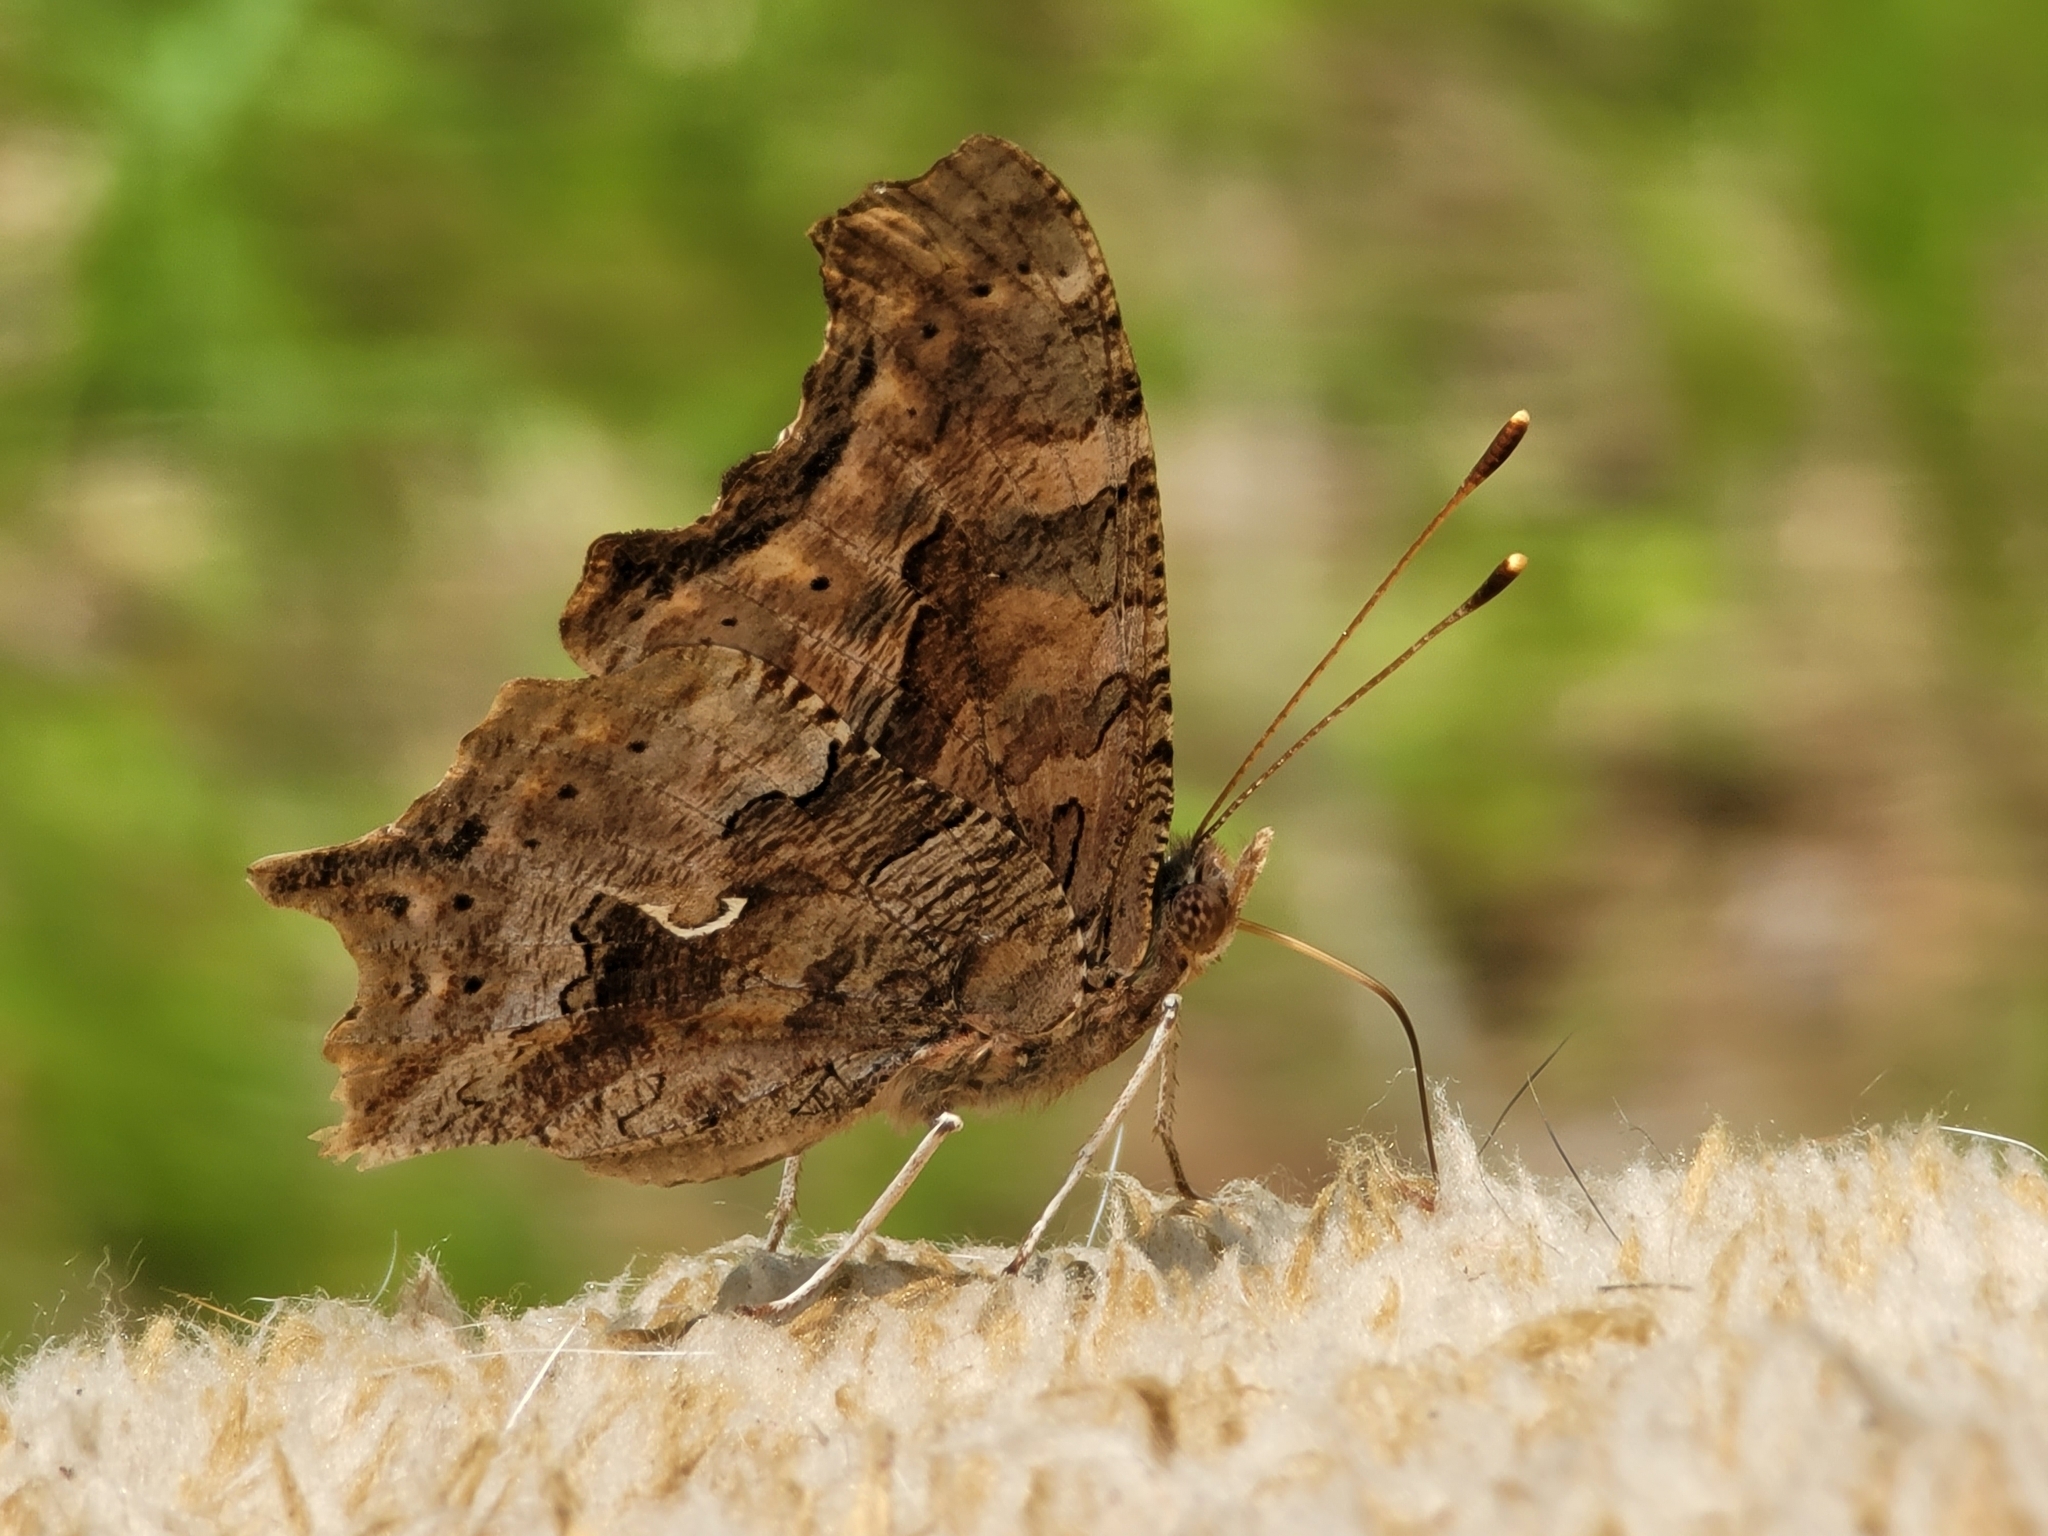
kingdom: Animalia
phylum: Arthropoda
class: Insecta
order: Lepidoptera
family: Nymphalidae
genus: Polygonia
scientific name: Polygonia comma
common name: Eastern comma
